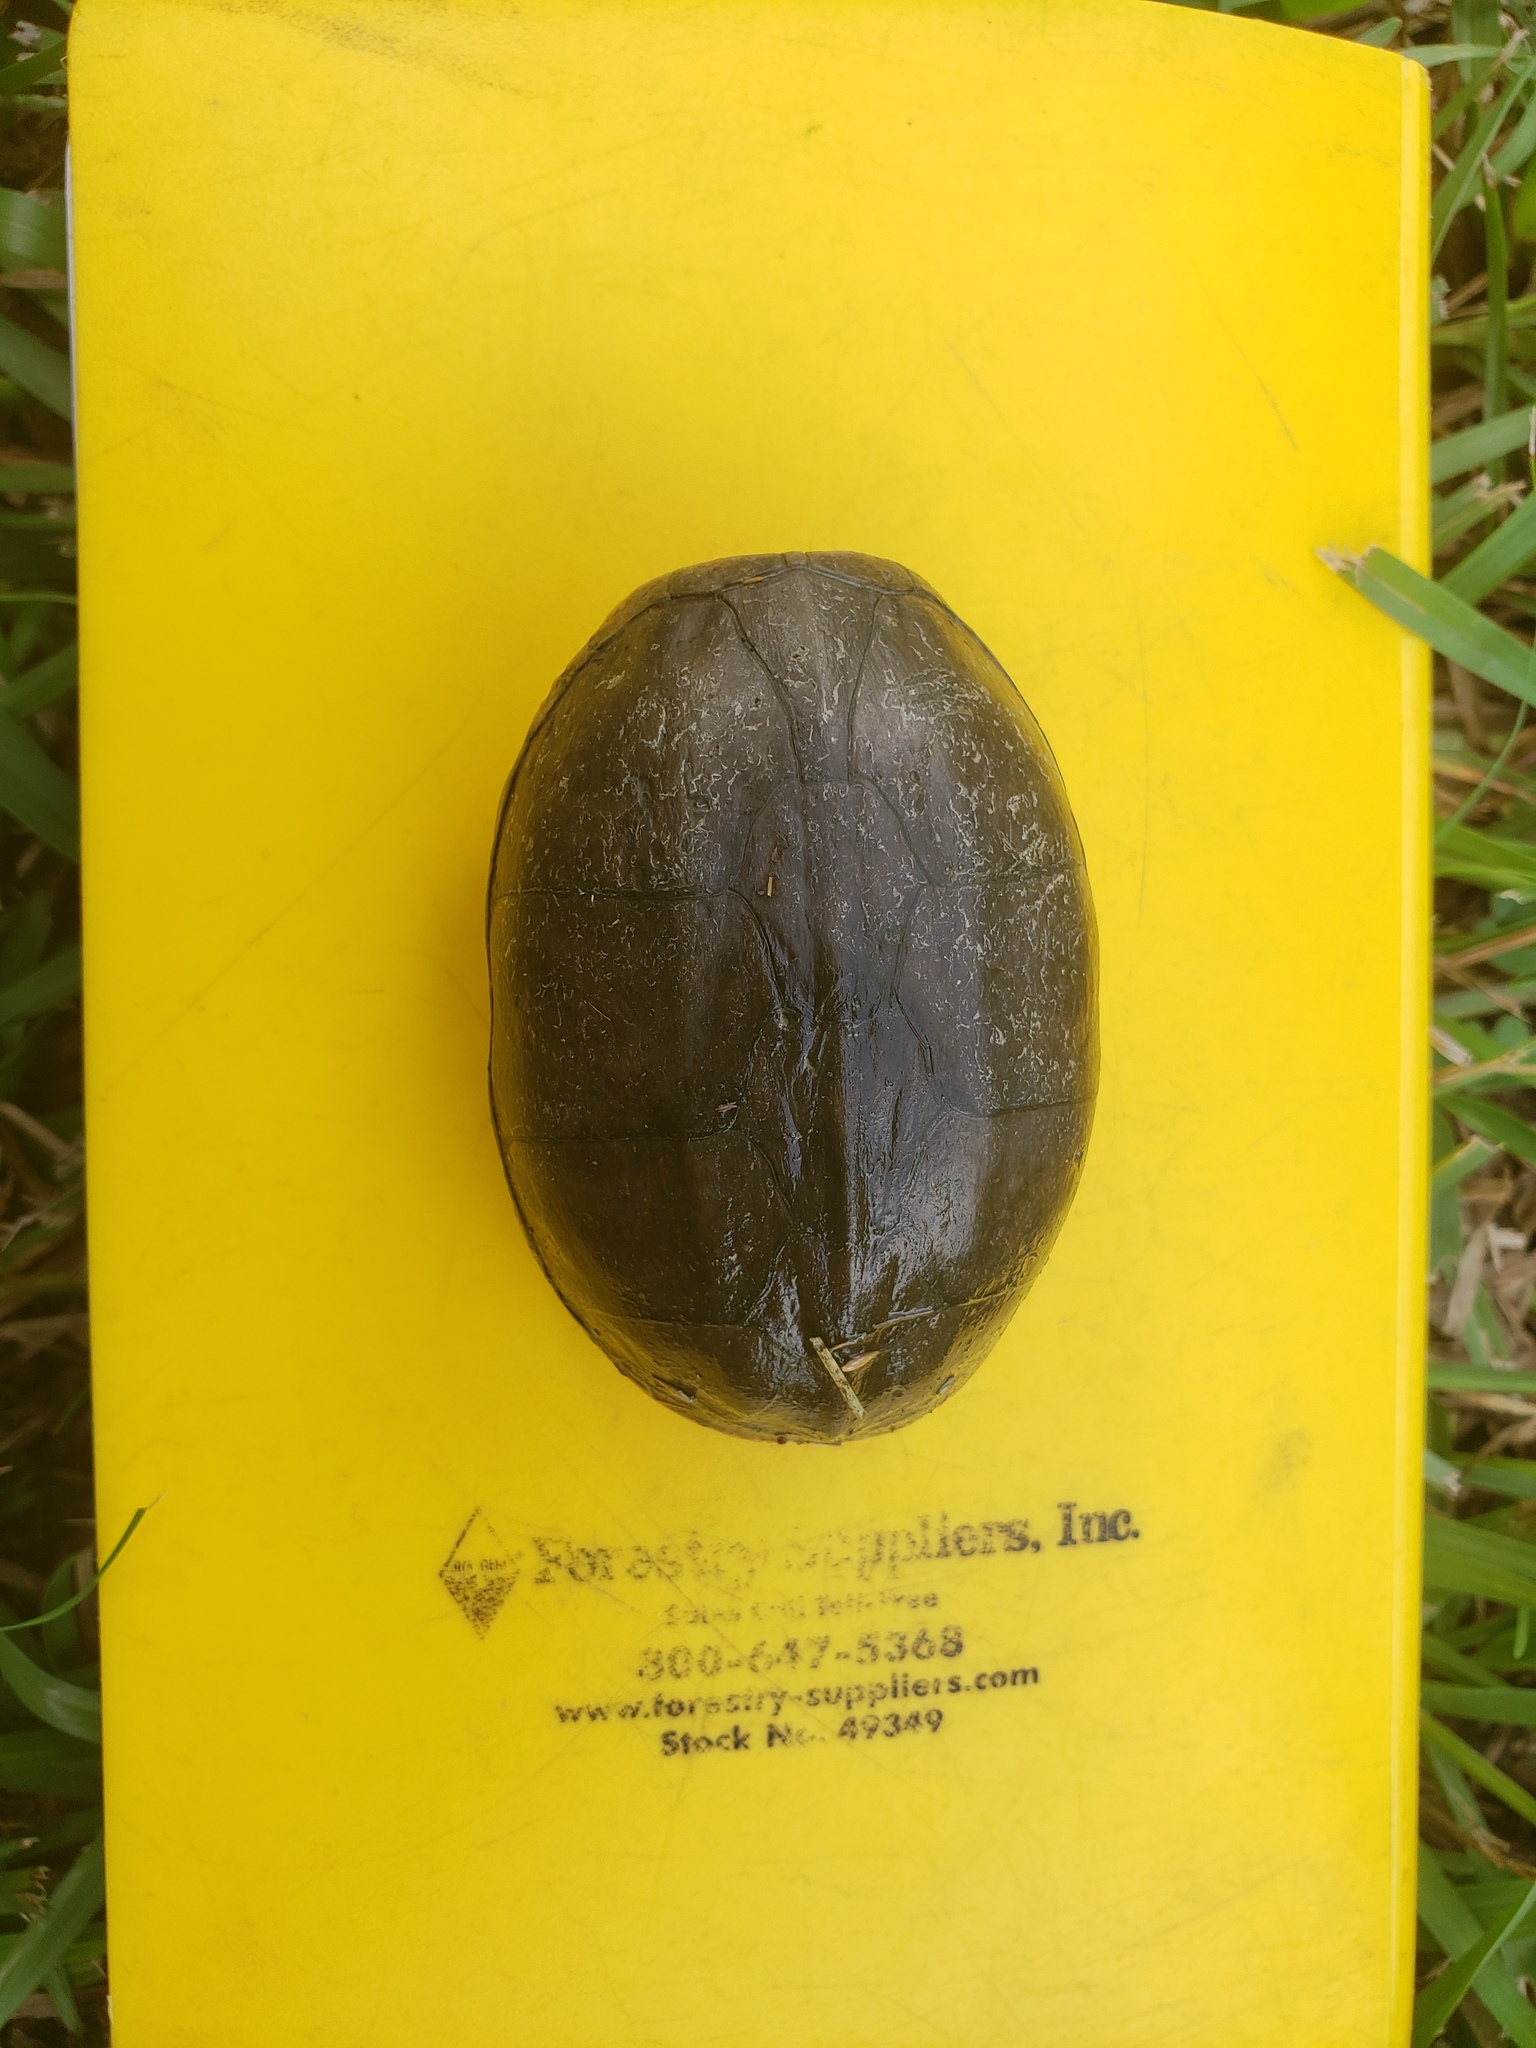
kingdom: Animalia
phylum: Chordata
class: Testudines
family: Kinosternidae
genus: Sternotherus
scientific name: Sternotherus odoratus
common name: Common musk turtle
